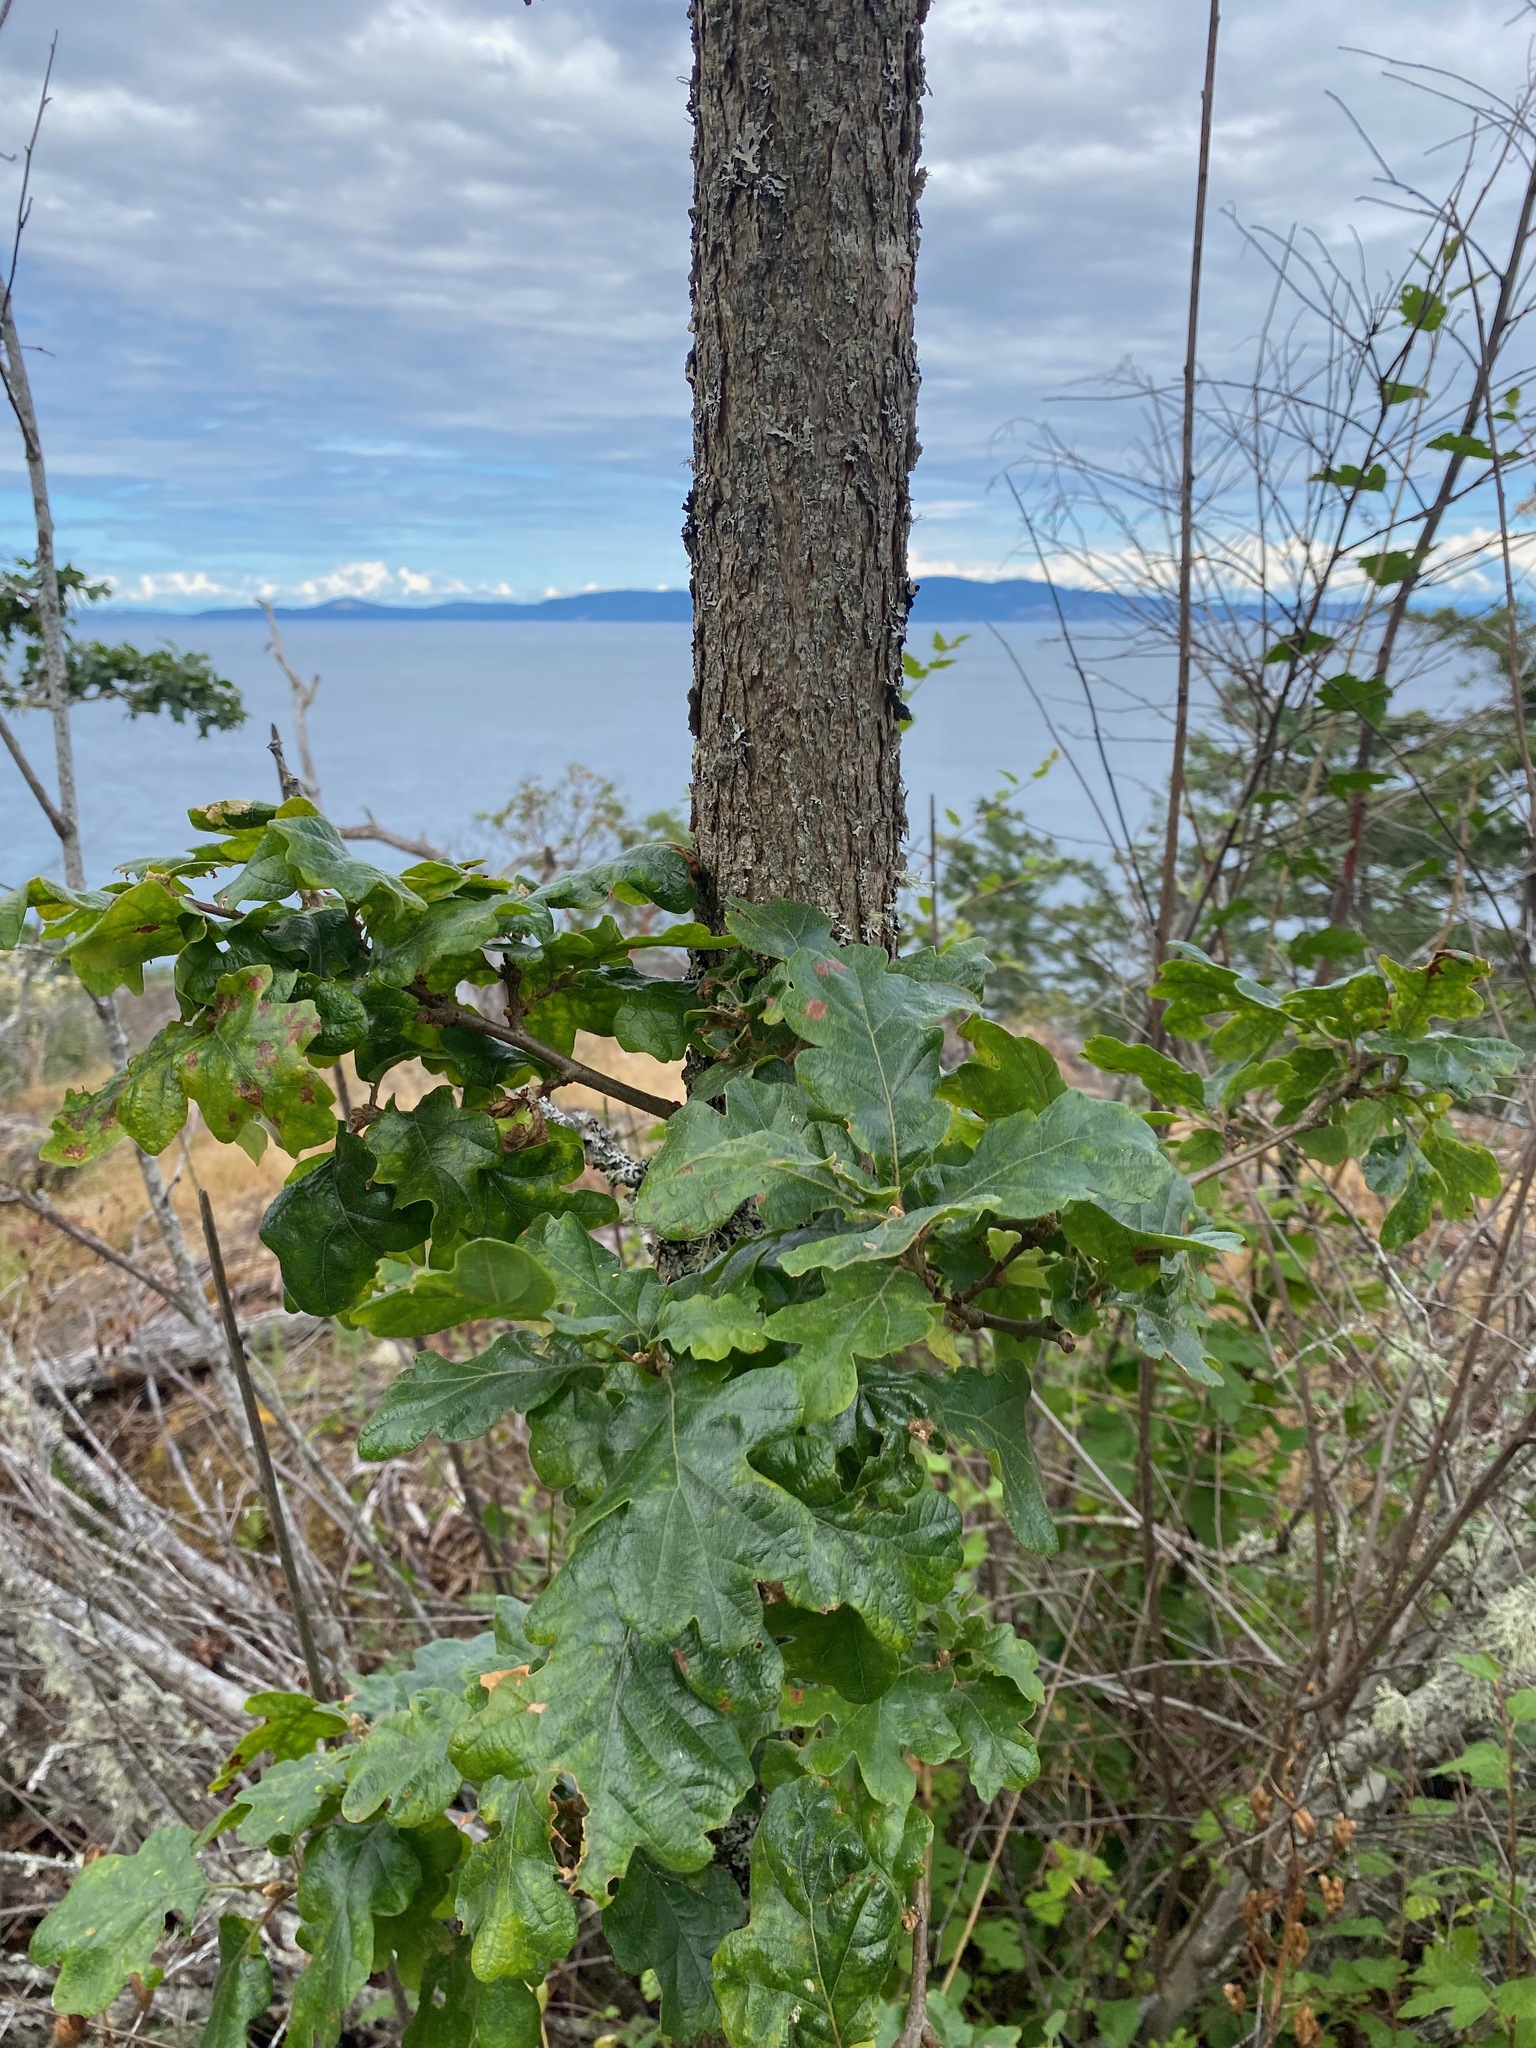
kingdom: Plantae
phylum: Tracheophyta
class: Magnoliopsida
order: Fagales
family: Fagaceae
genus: Quercus
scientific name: Quercus garryana
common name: Garry oak
